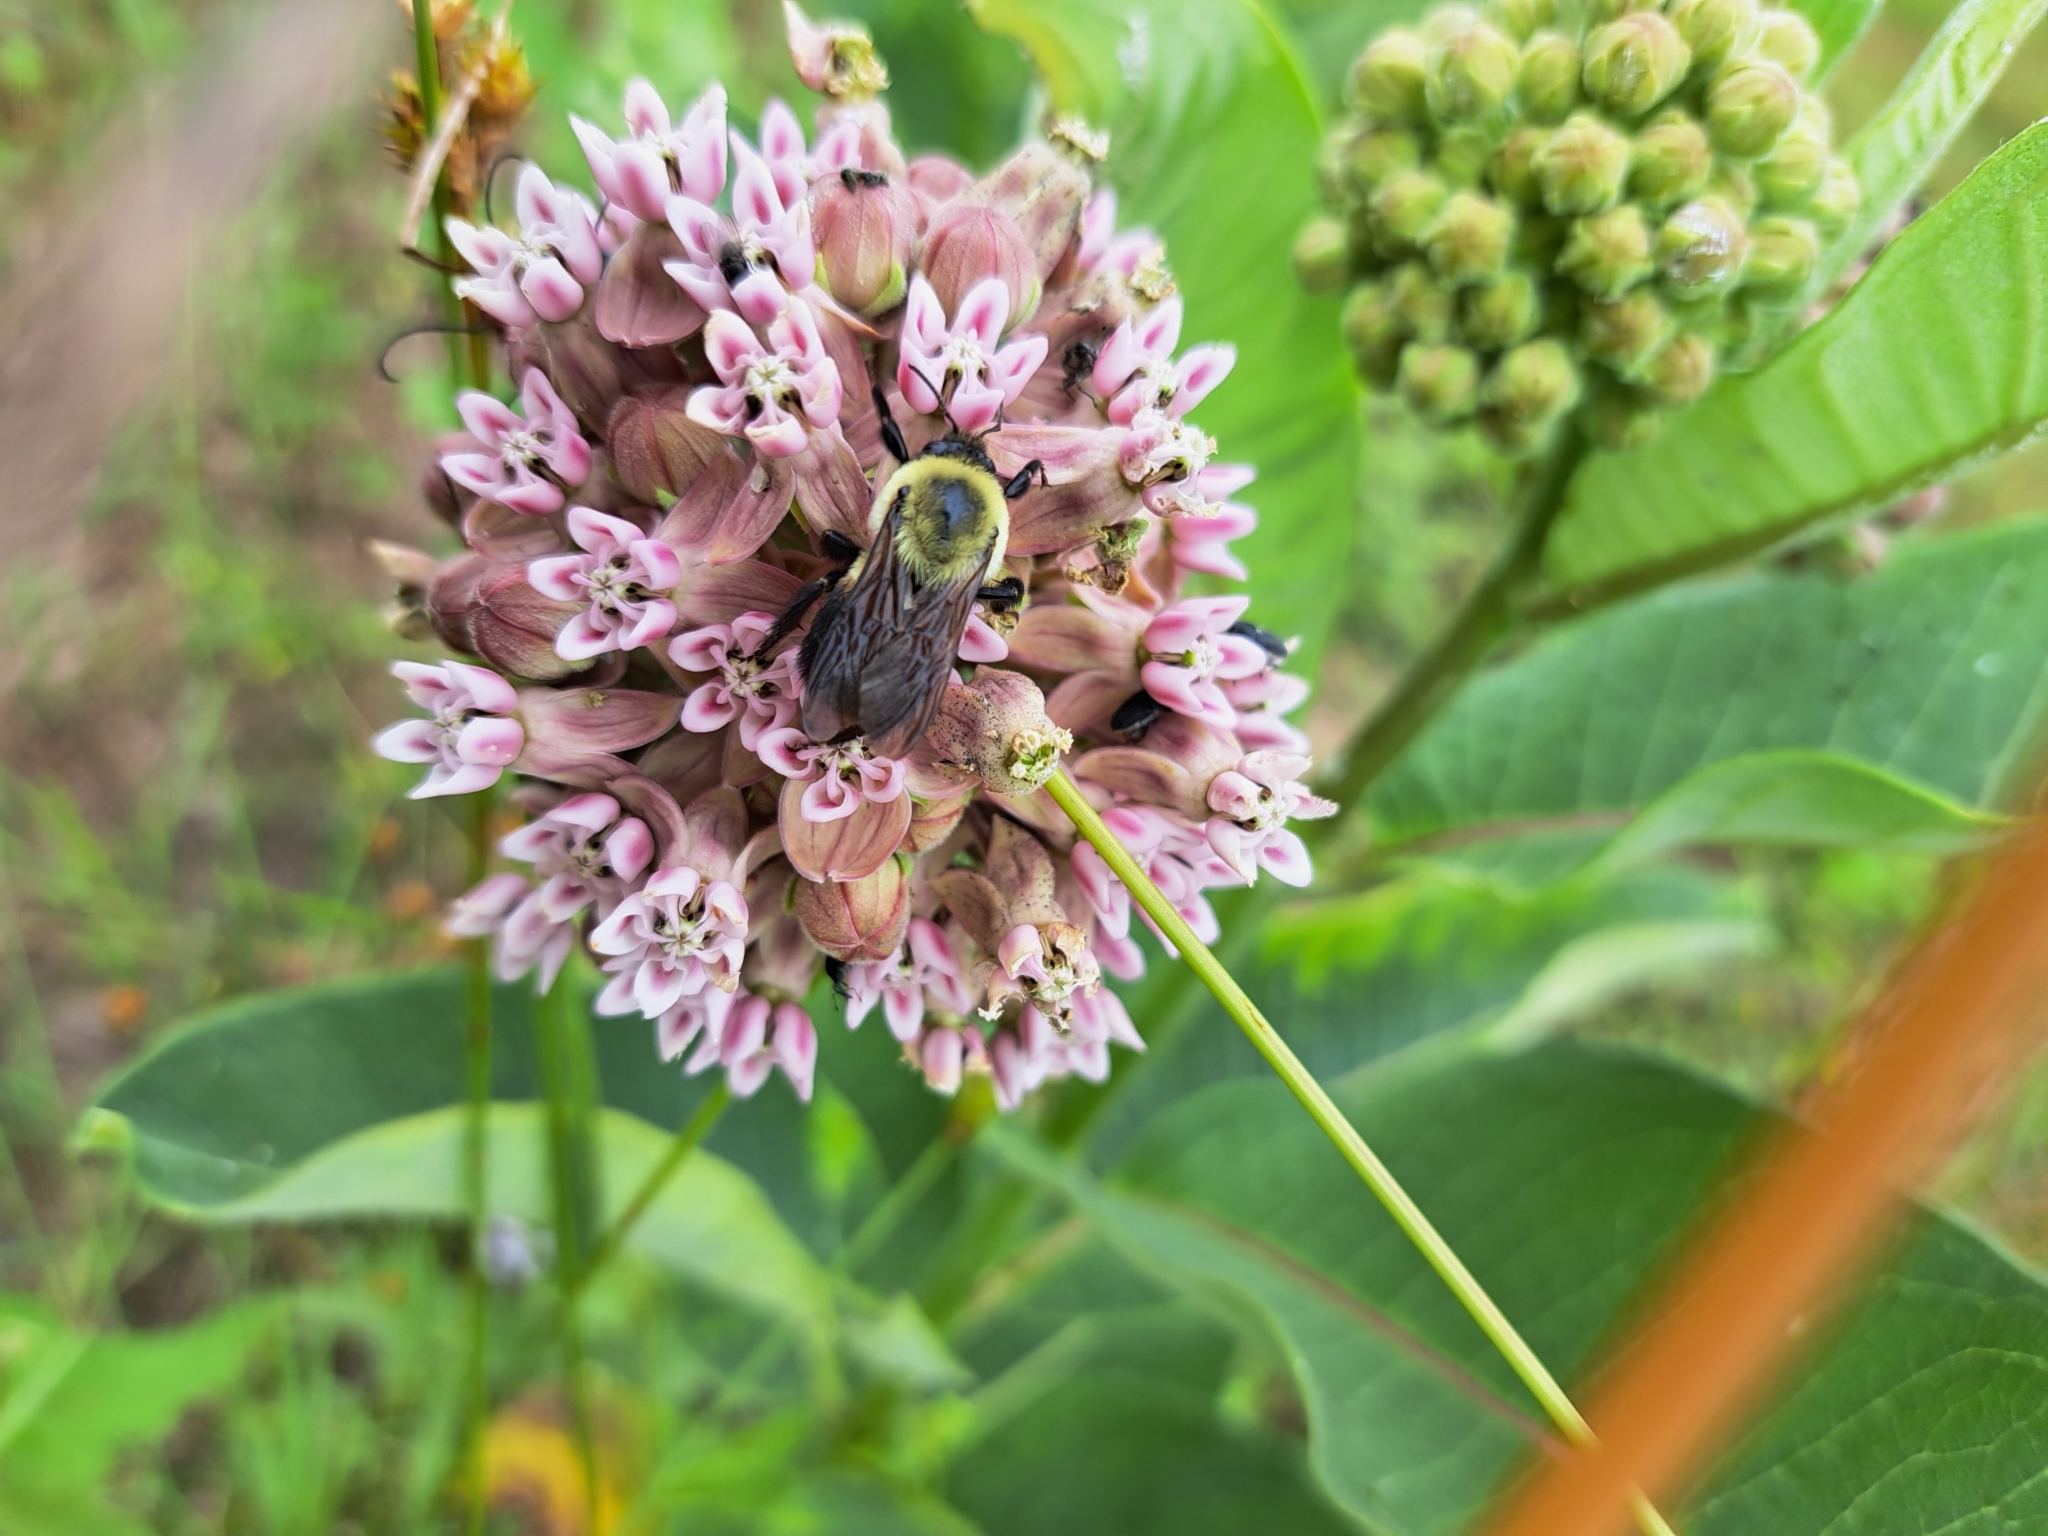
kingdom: Animalia
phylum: Arthropoda
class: Insecta
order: Hymenoptera
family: Apidae
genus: Bombus
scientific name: Bombus griseocollis
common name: Brown-belted bumble bee
